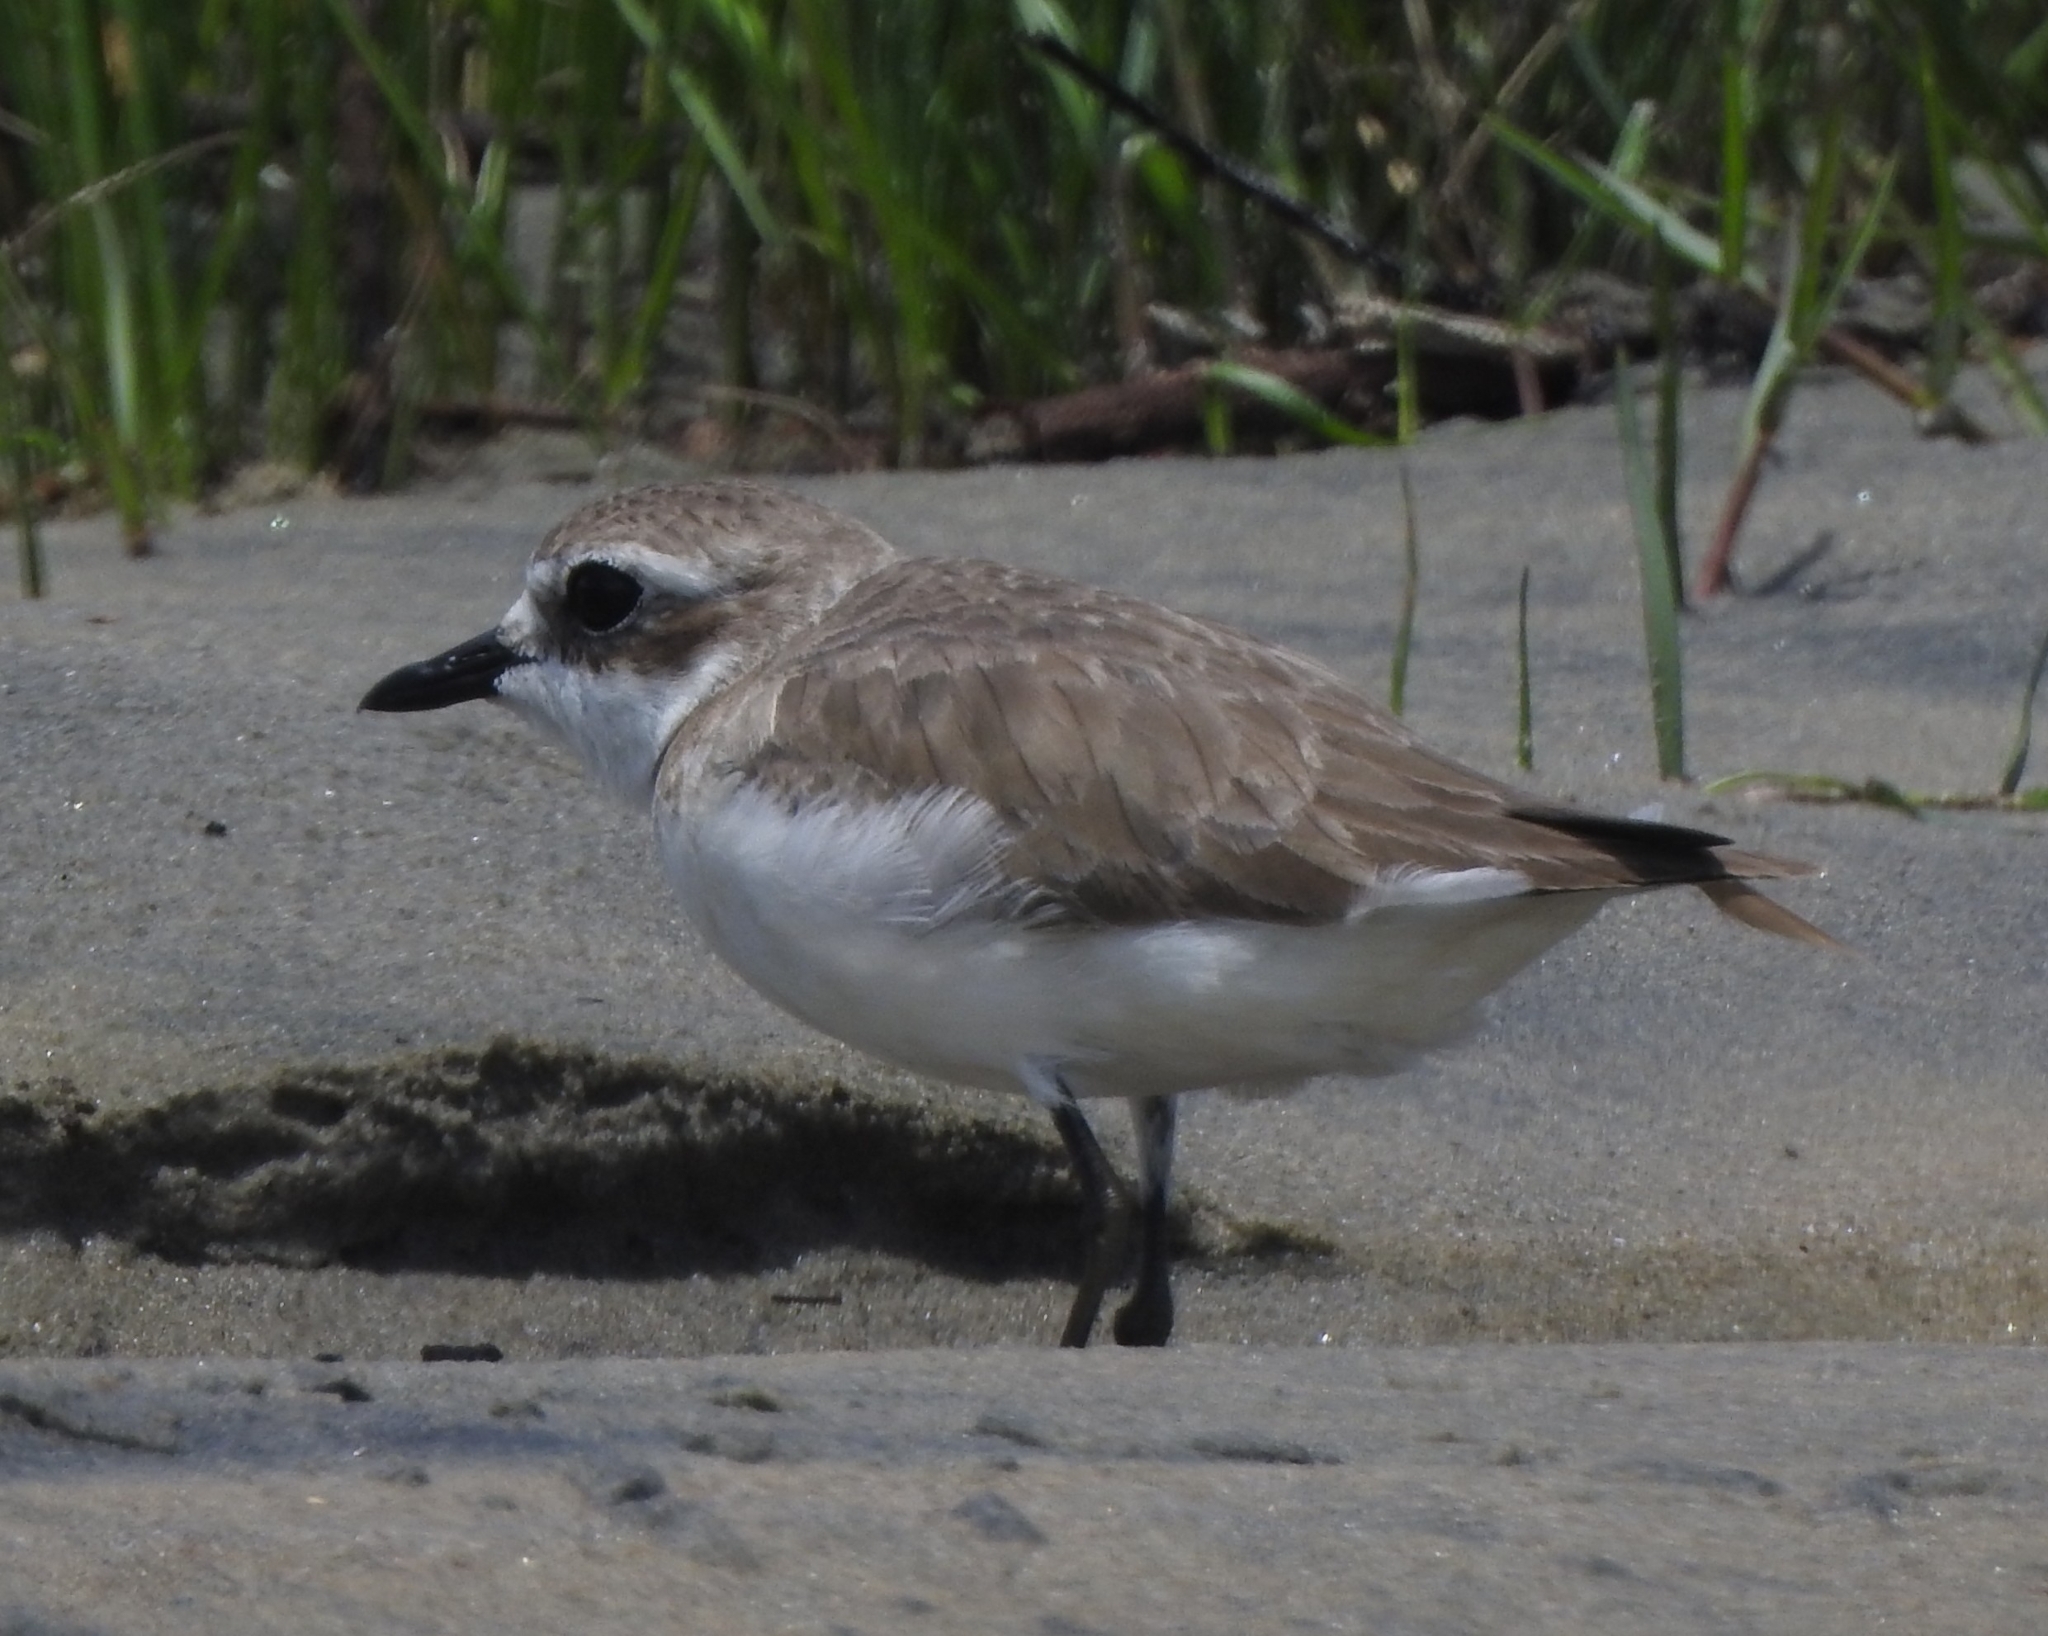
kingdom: Animalia
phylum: Chordata
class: Aves
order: Charadriiformes
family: Charadriidae
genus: Anarhynchus
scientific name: Anarhynchus
